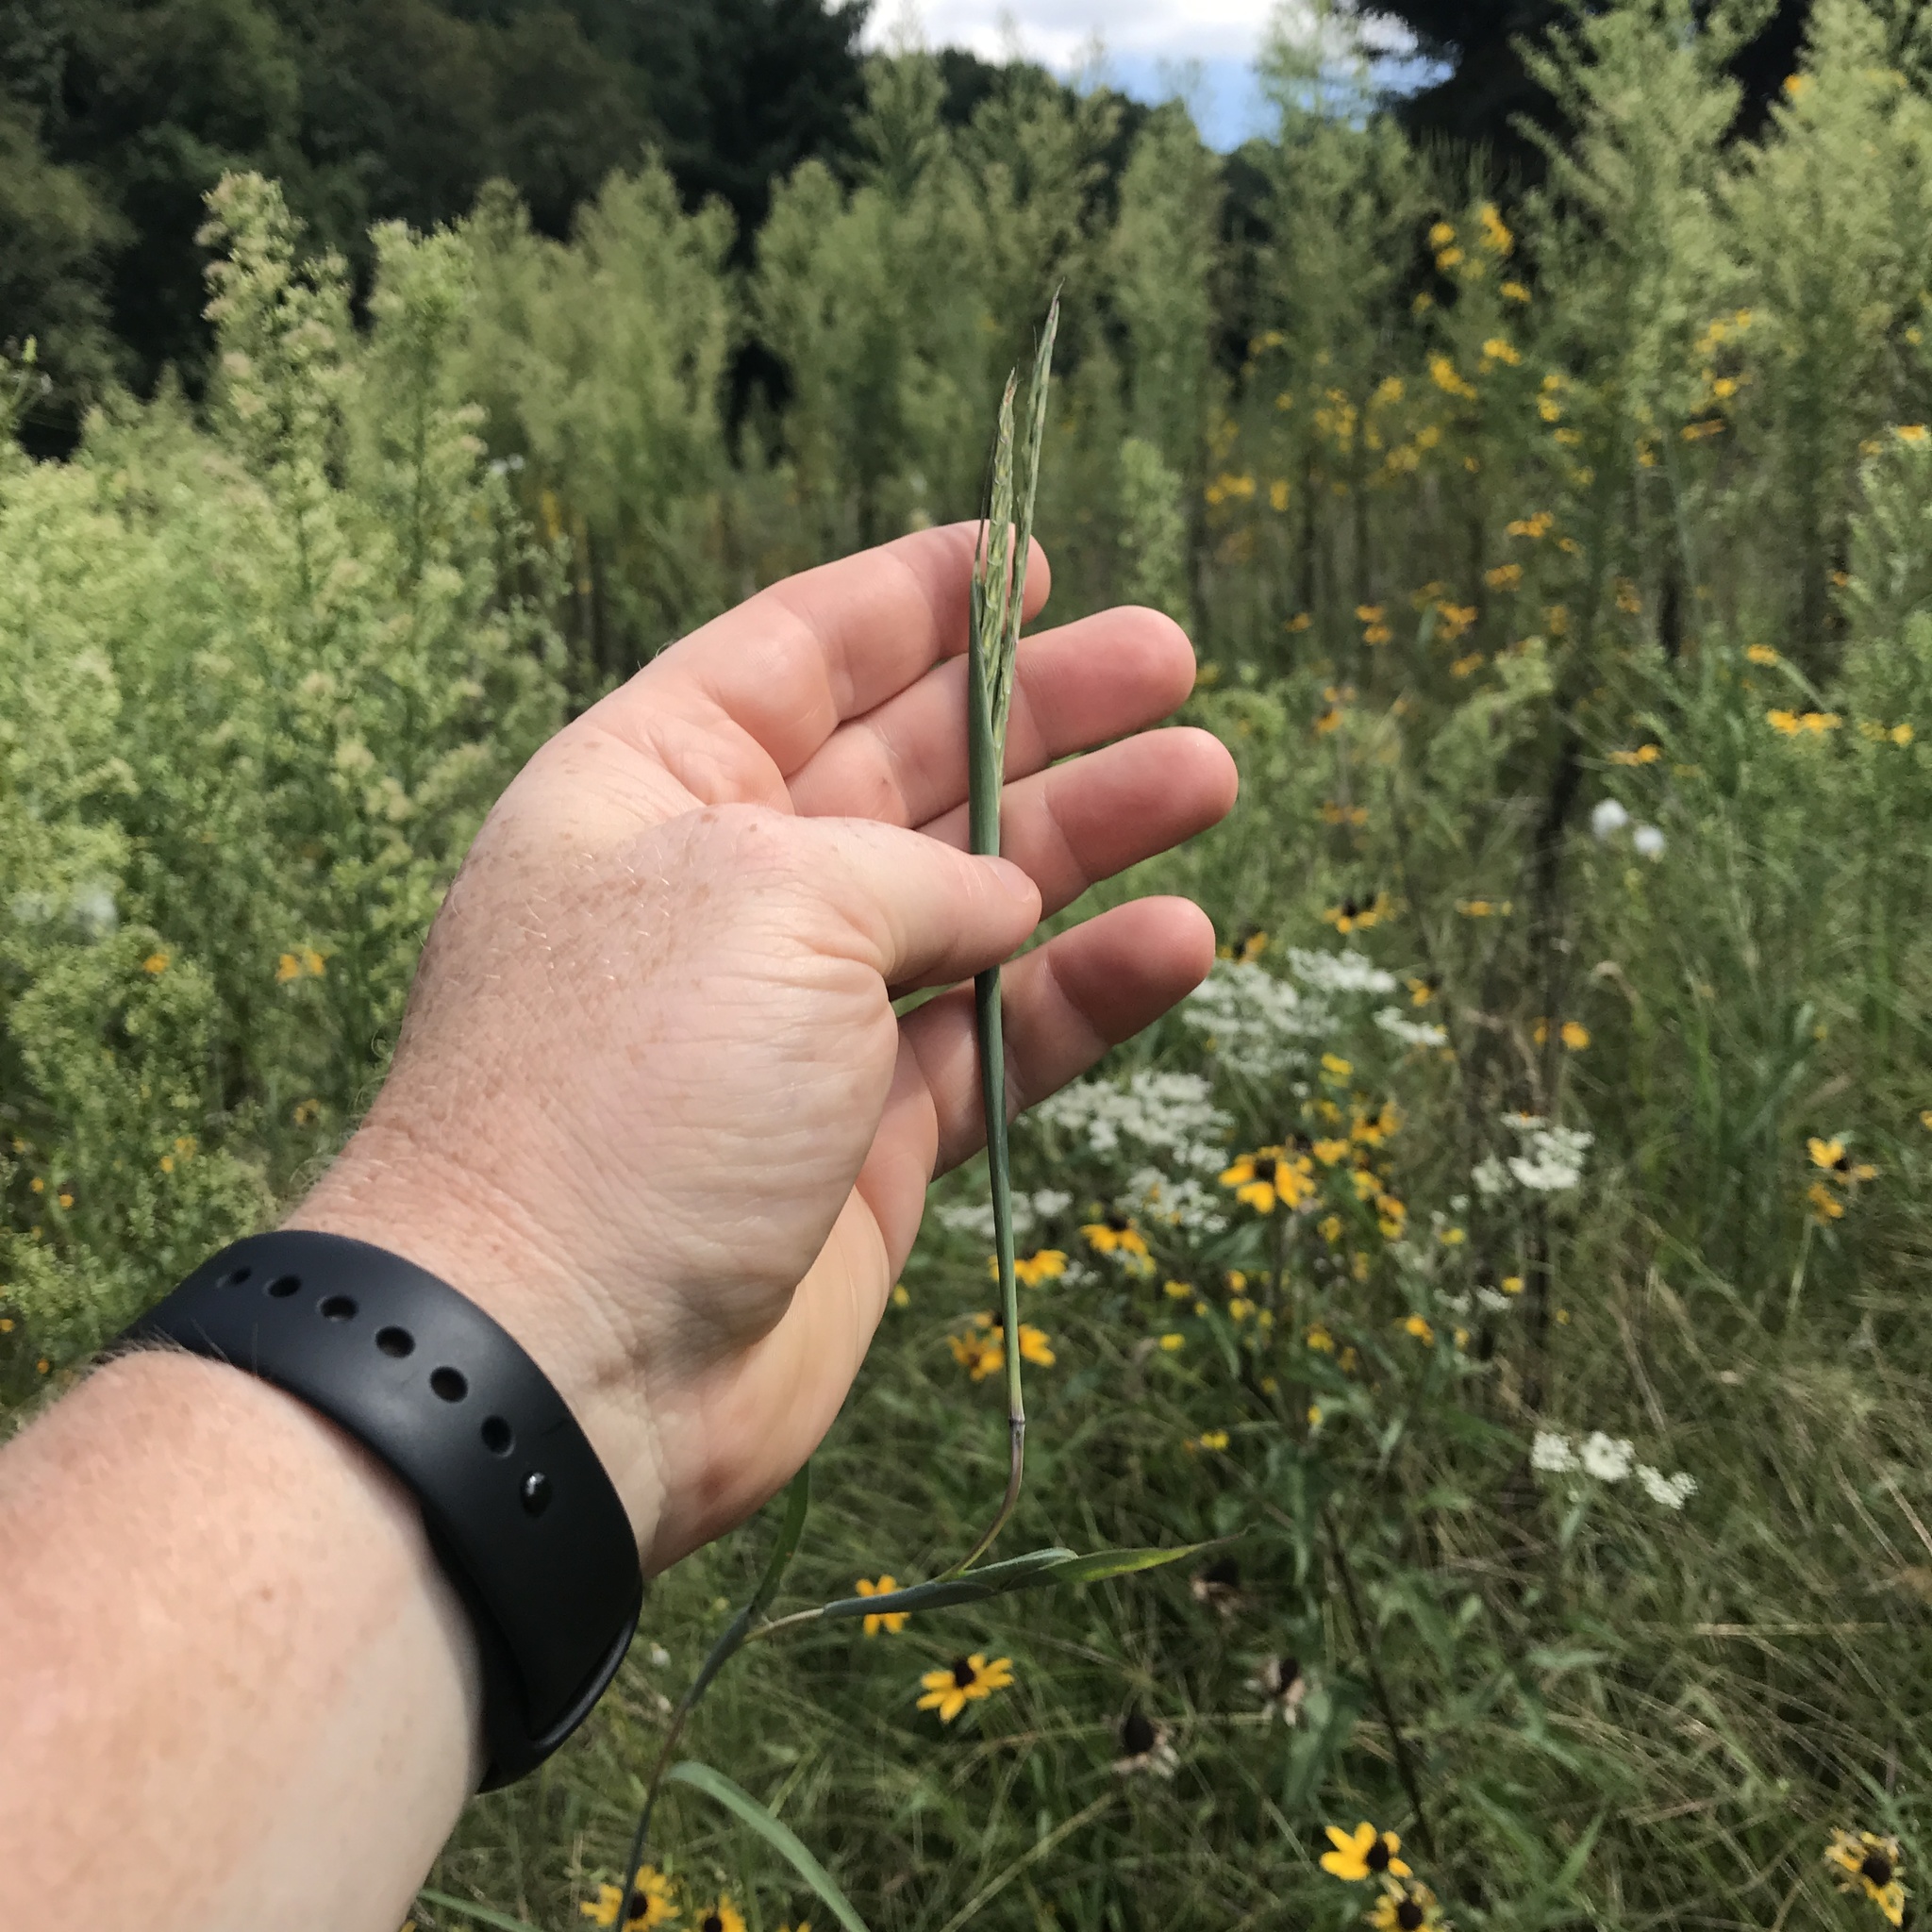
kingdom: Plantae
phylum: Tracheophyta
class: Liliopsida
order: Poales
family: Poaceae
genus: Andropogon
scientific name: Andropogon gerardi
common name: Big bluestem
